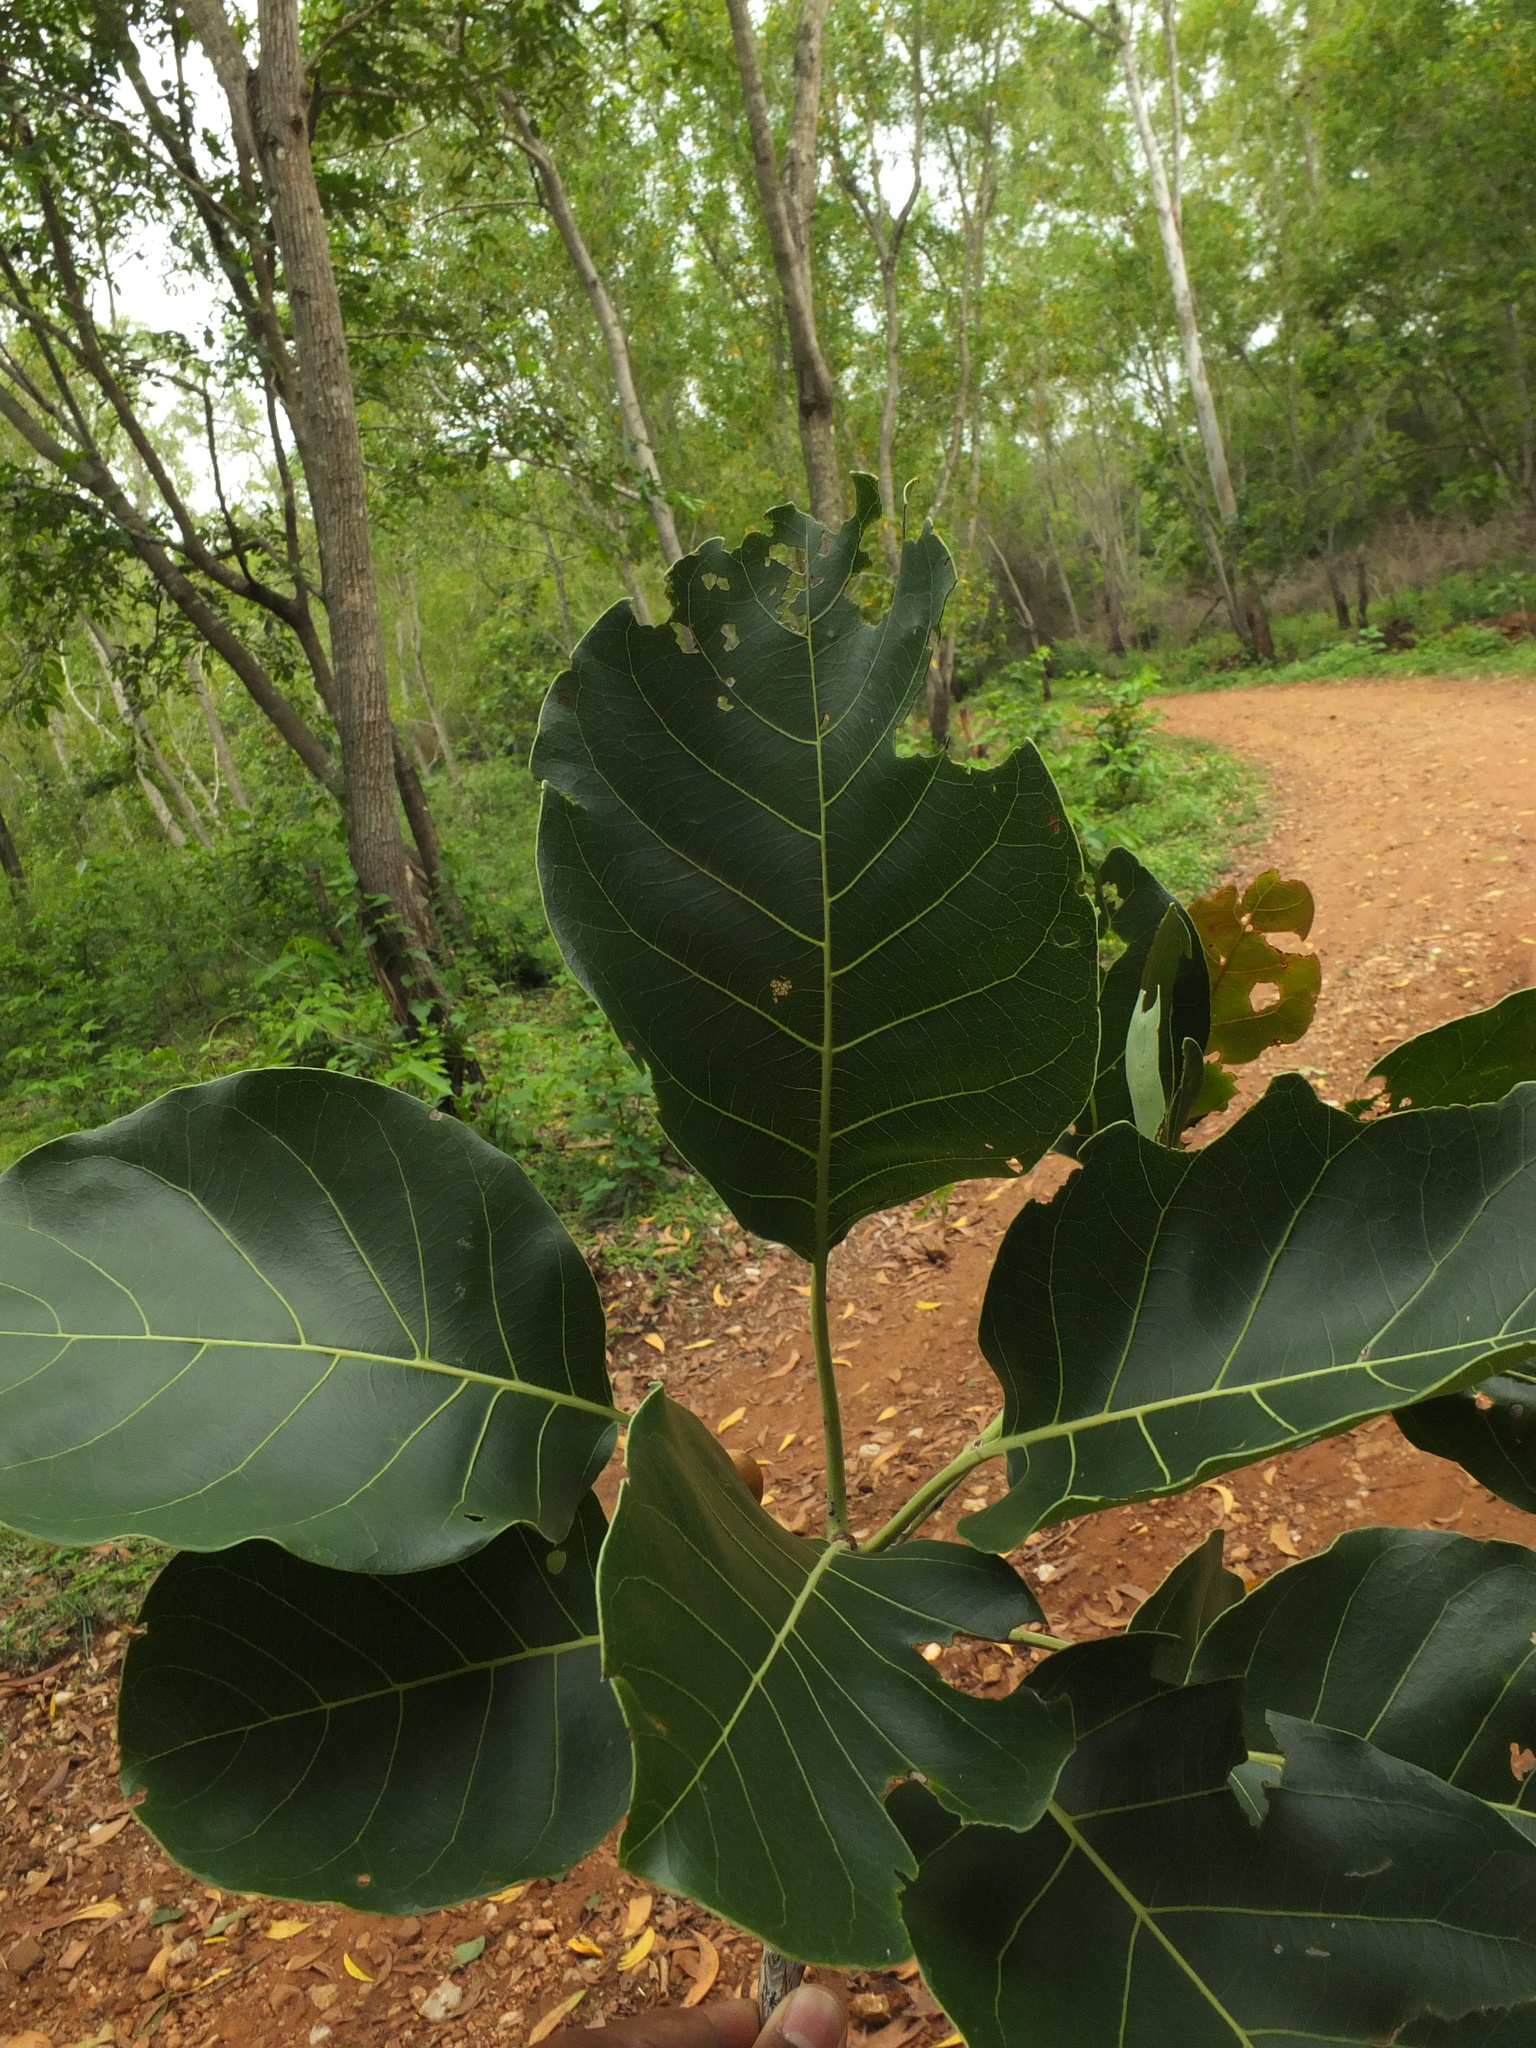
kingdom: Plantae
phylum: Tracheophyta
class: Magnoliopsida
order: Myrtales
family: Combretaceae
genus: Terminalia
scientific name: Terminalia bellirica
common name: Beleric myrobalan
